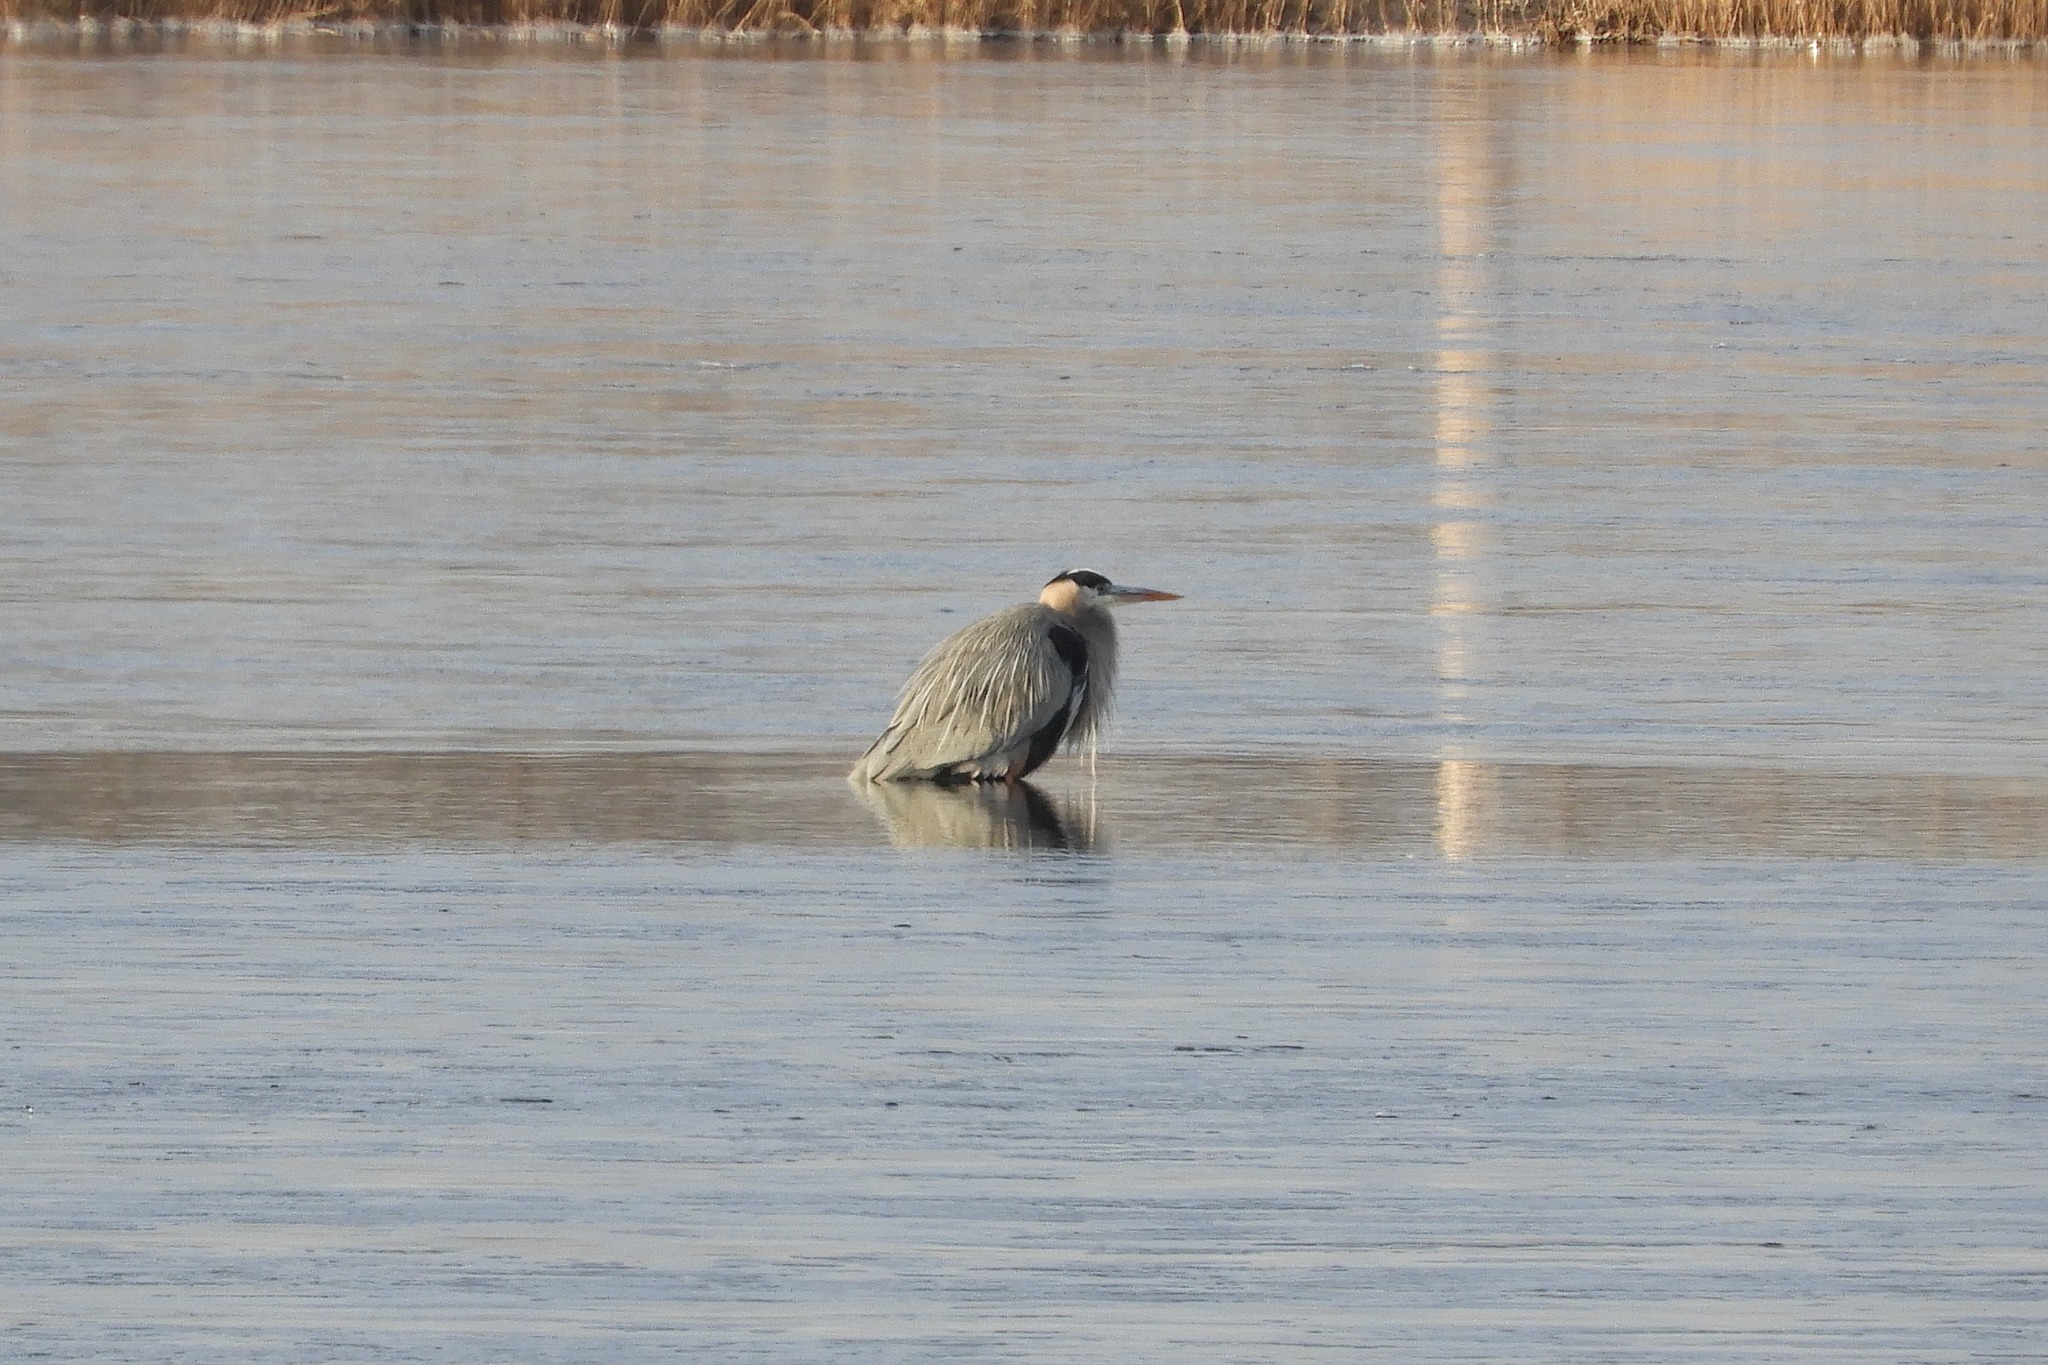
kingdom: Animalia
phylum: Chordata
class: Aves
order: Pelecaniformes
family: Ardeidae
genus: Ardea
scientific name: Ardea herodias
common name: Great blue heron
